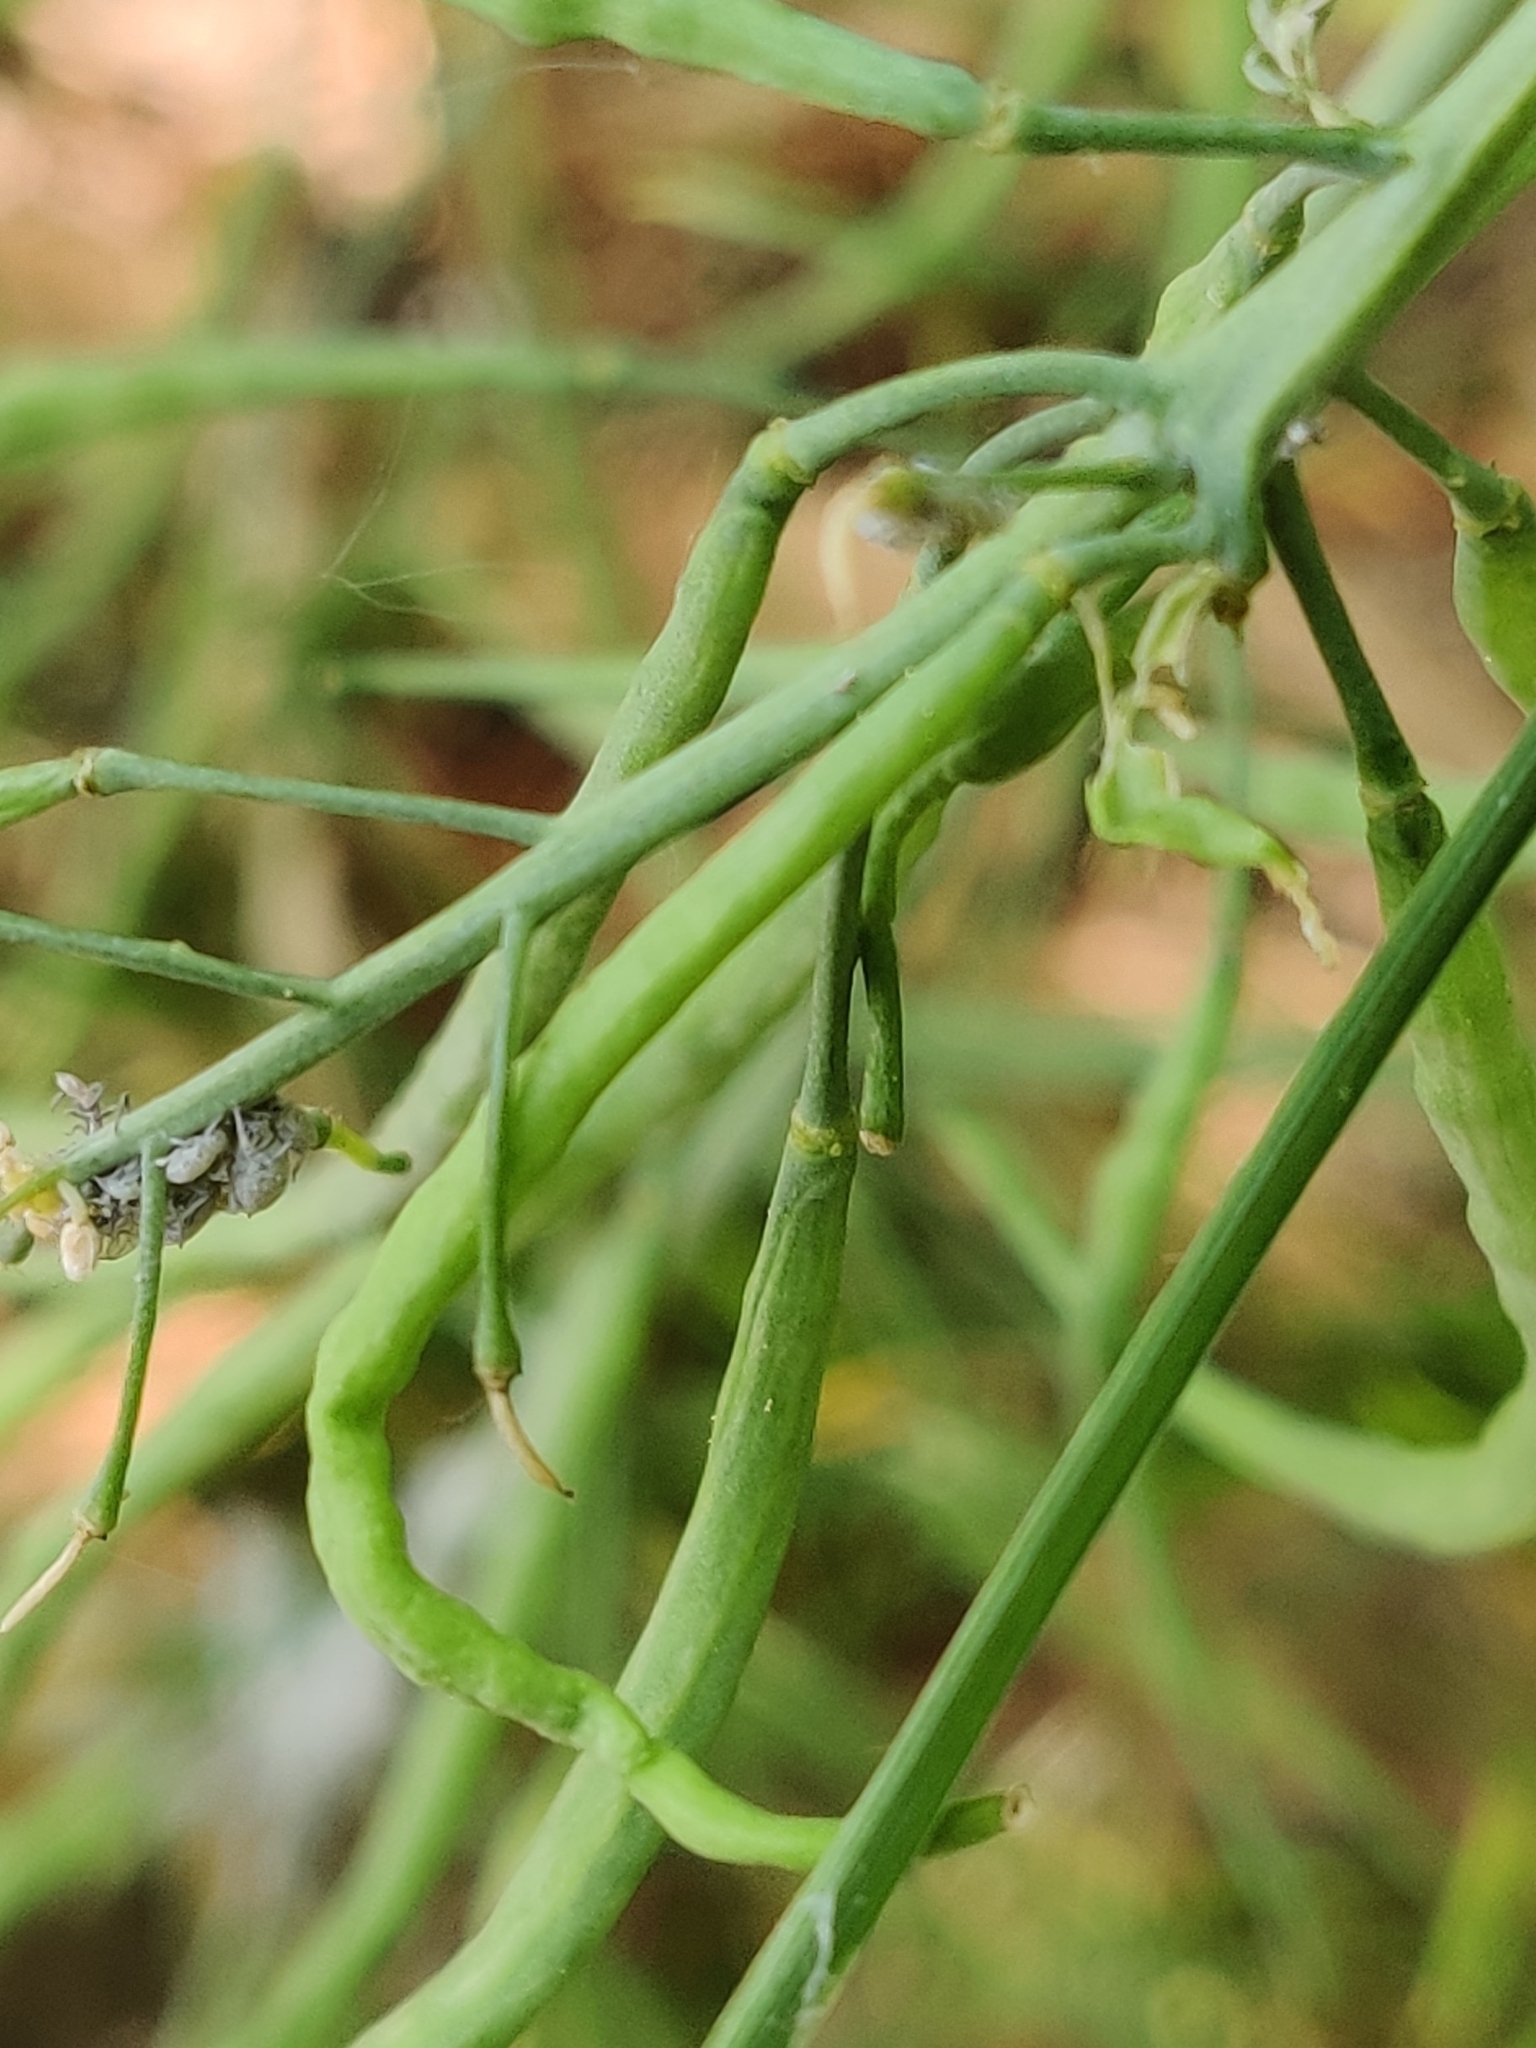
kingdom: Animalia
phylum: Arthropoda
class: Insecta
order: Lepidoptera
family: Pieridae
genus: Pieris
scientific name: Pieris brassicae
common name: Large white
